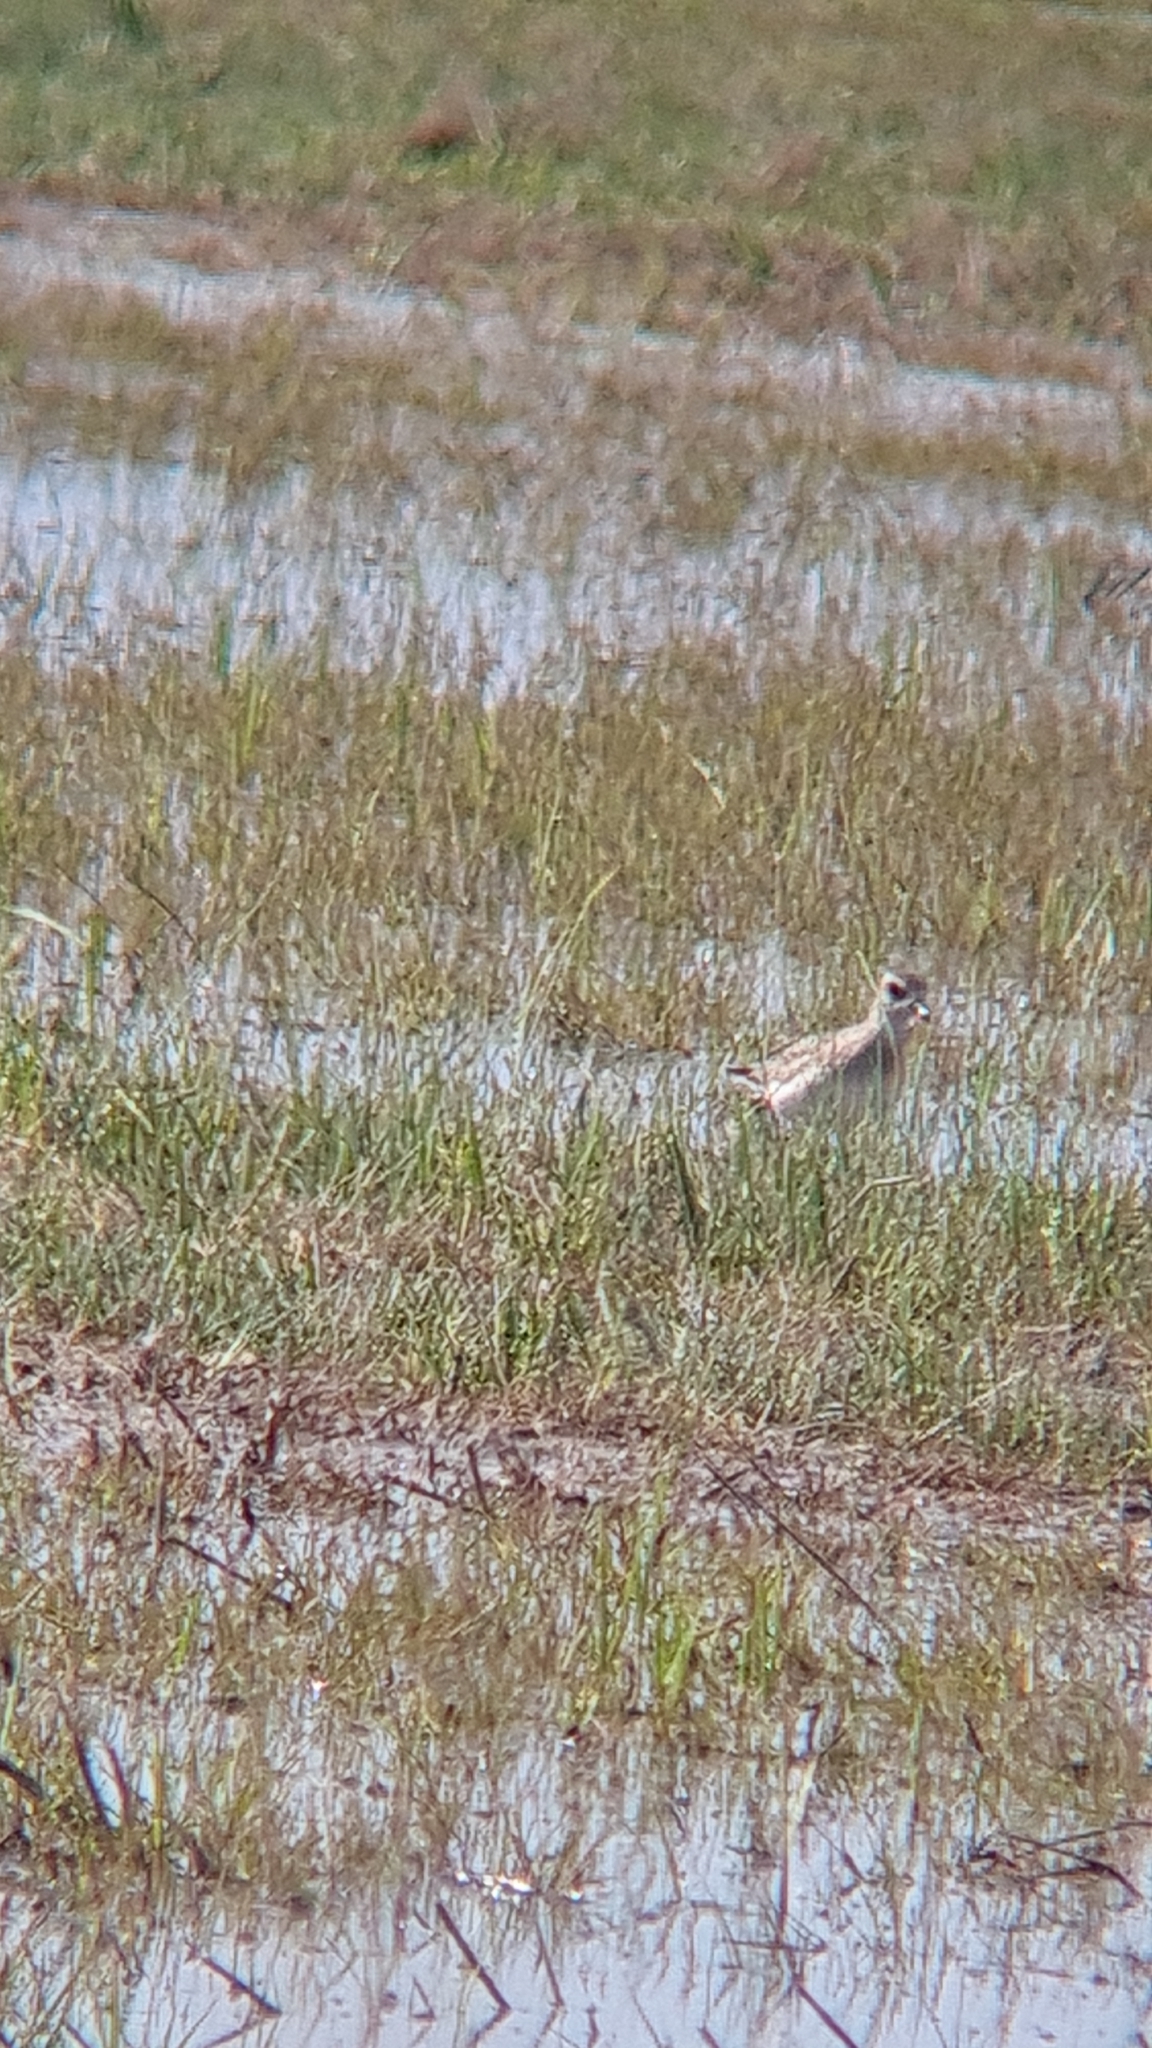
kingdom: Animalia
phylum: Chordata
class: Aves
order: Charadriiformes
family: Charadriidae
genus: Pluvialis
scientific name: Pluvialis squatarola
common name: Grey plover
